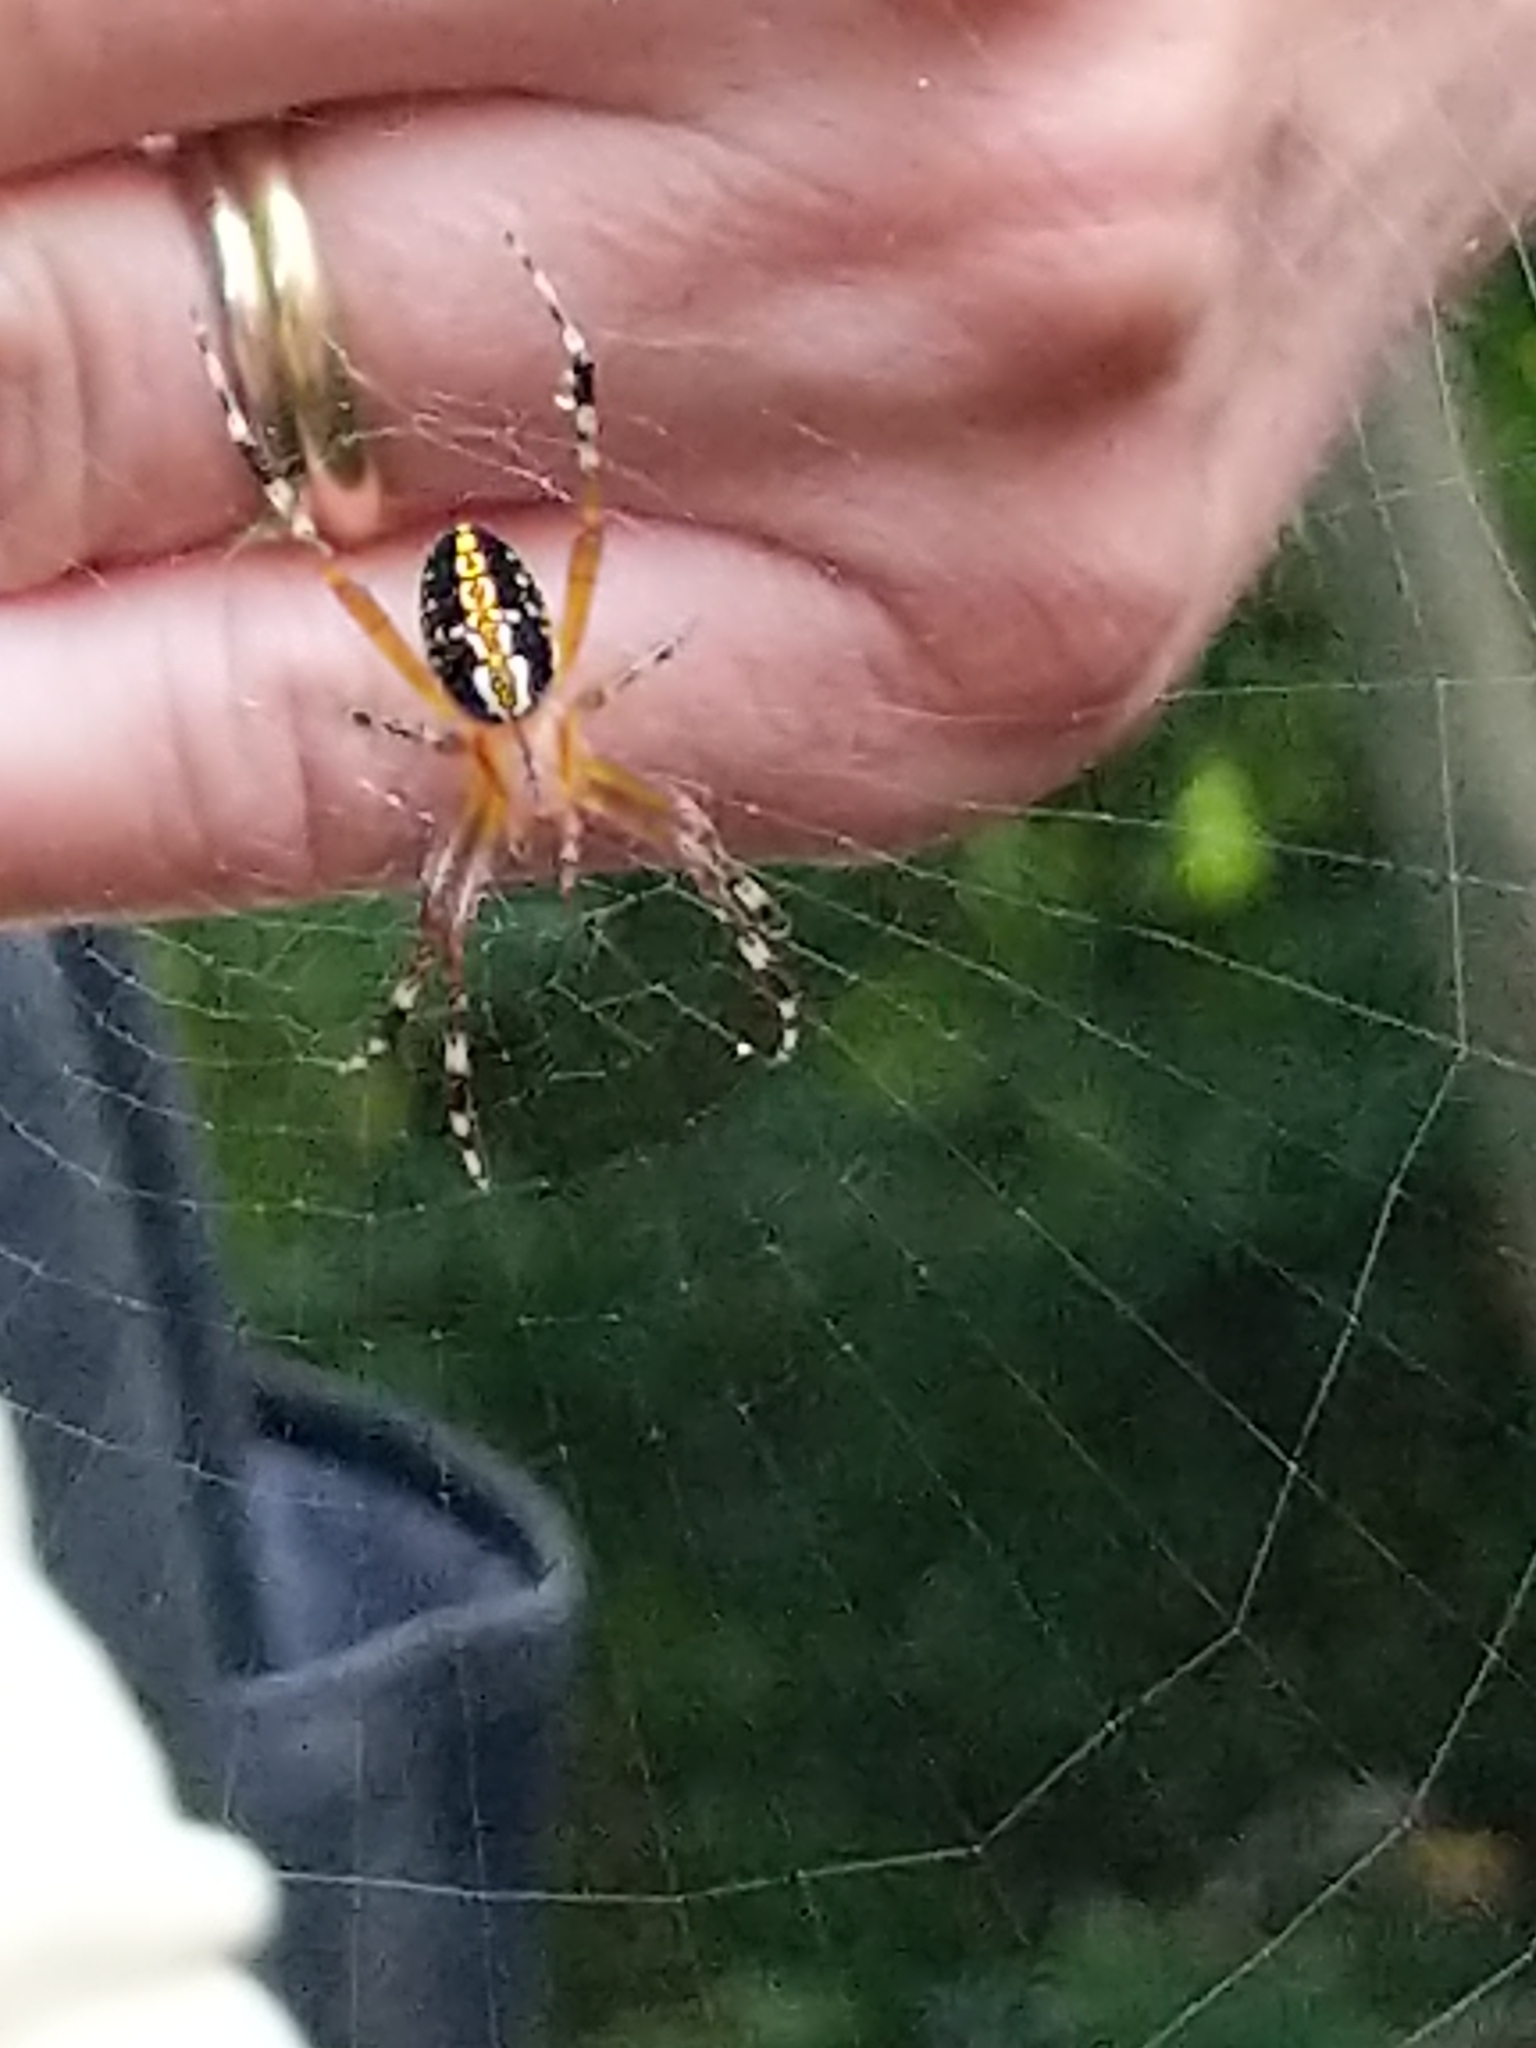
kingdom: Animalia
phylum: Arthropoda
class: Arachnida
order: Araneae
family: Araneidae
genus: Neoscona
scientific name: Neoscona oaxacensis
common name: Orb weavers
